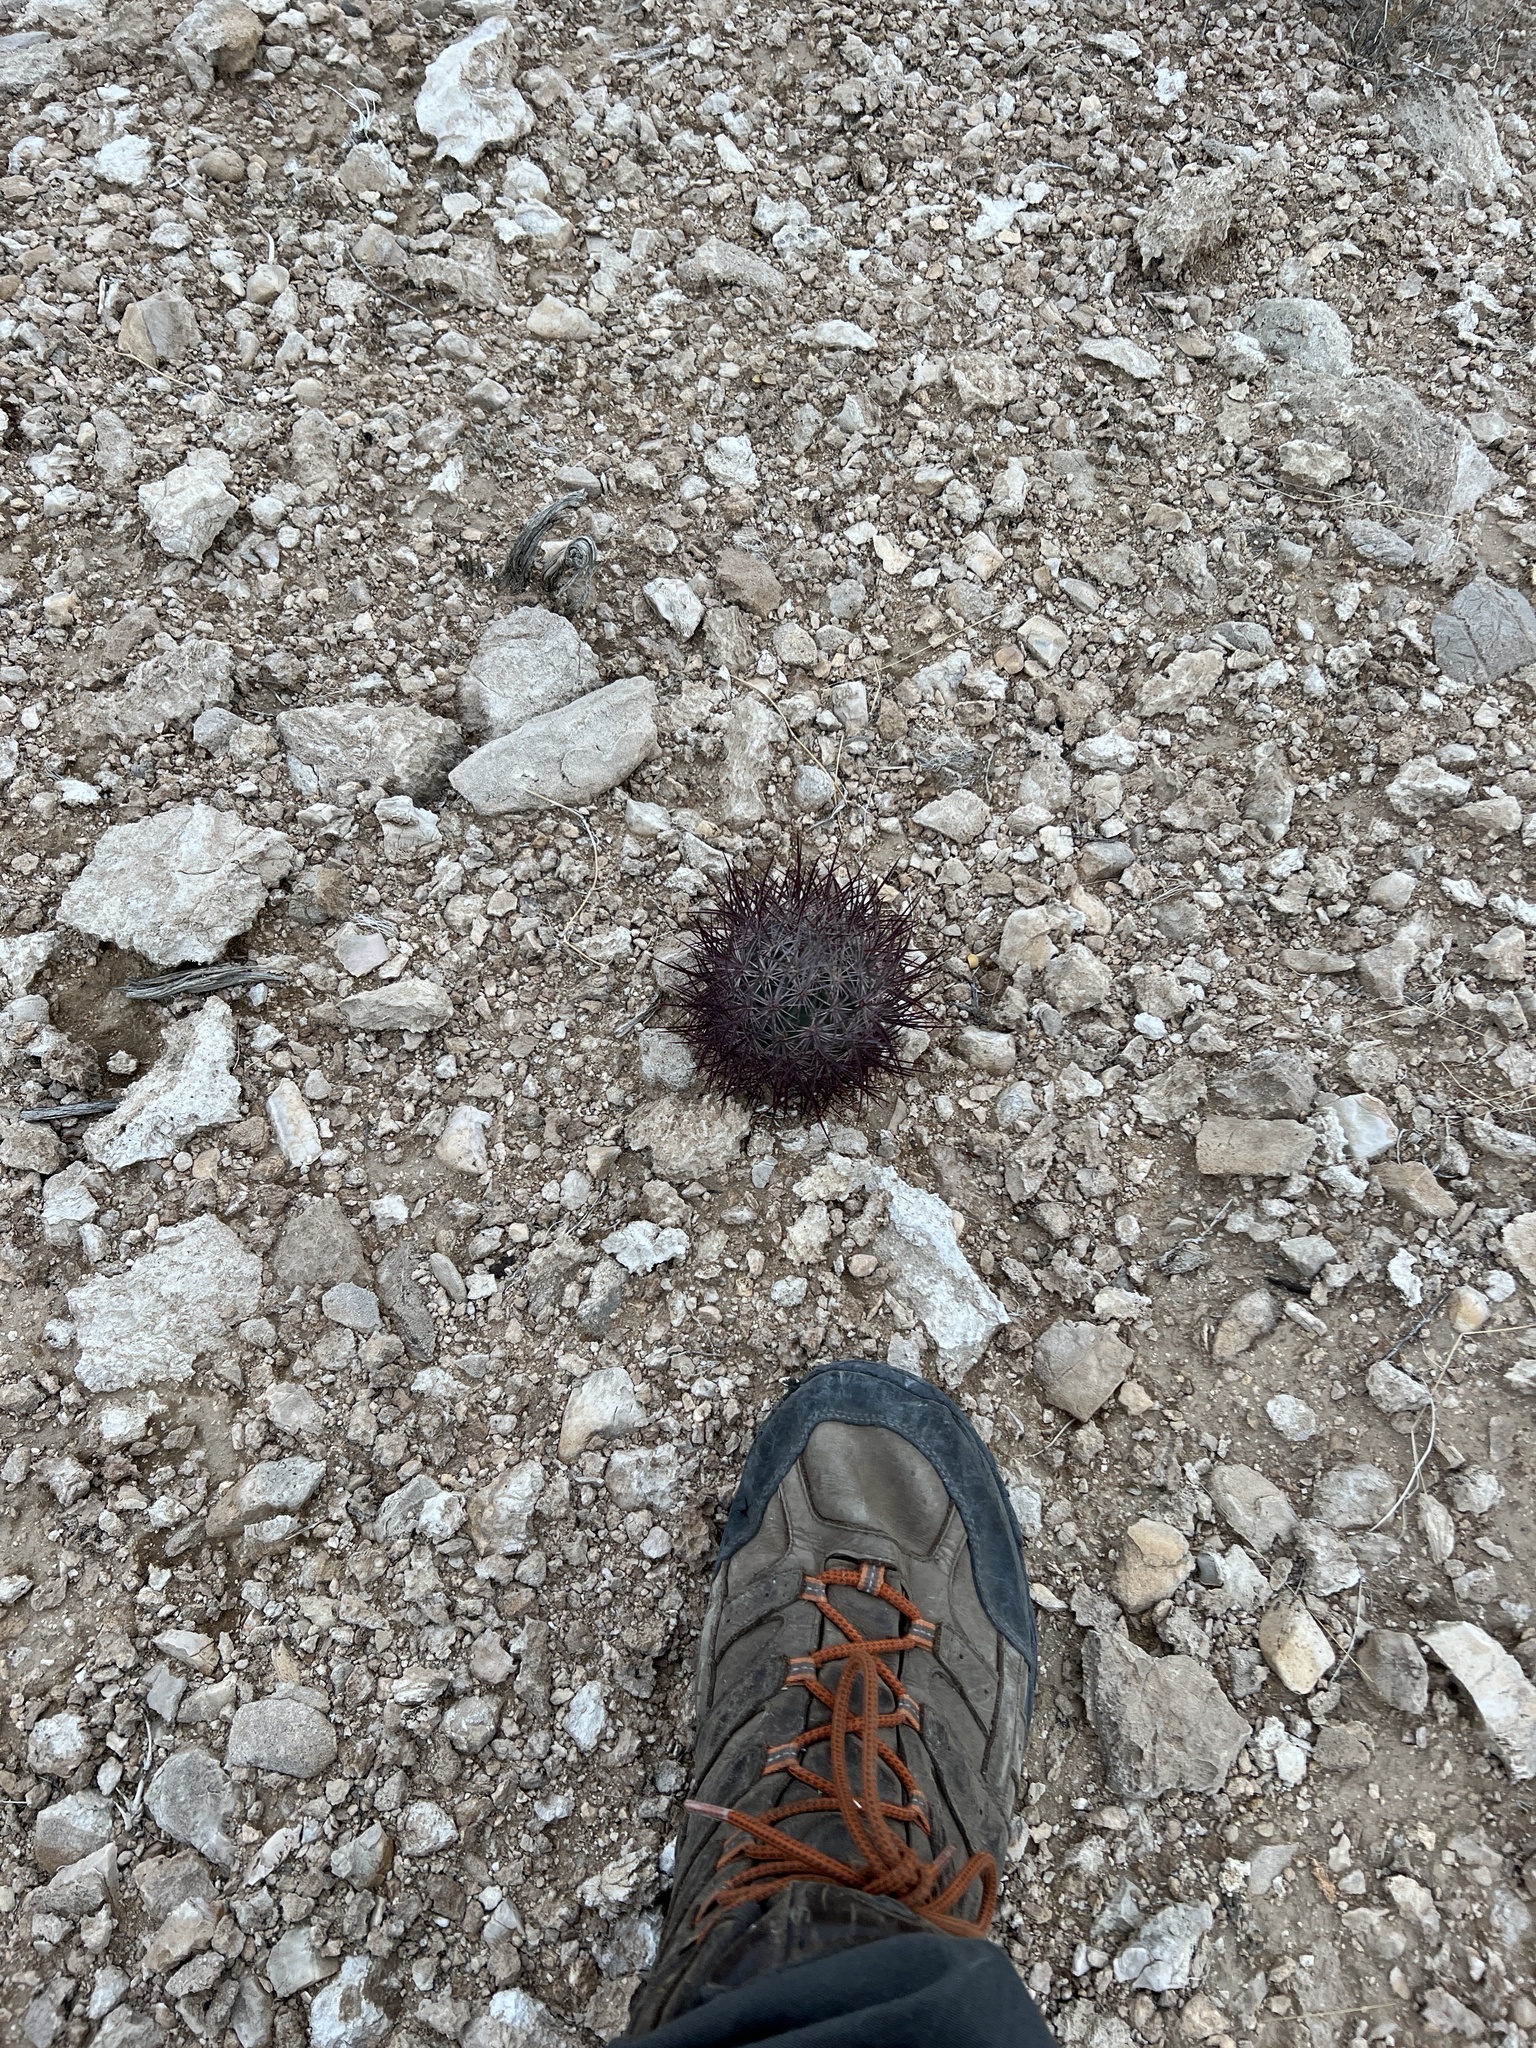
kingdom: Plantae
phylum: Tracheophyta
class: Magnoliopsida
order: Caryophyllales
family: Cactaceae
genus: Sclerocactus
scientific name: Sclerocactus johnsonii
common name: Eight-spine fishhook cactus
